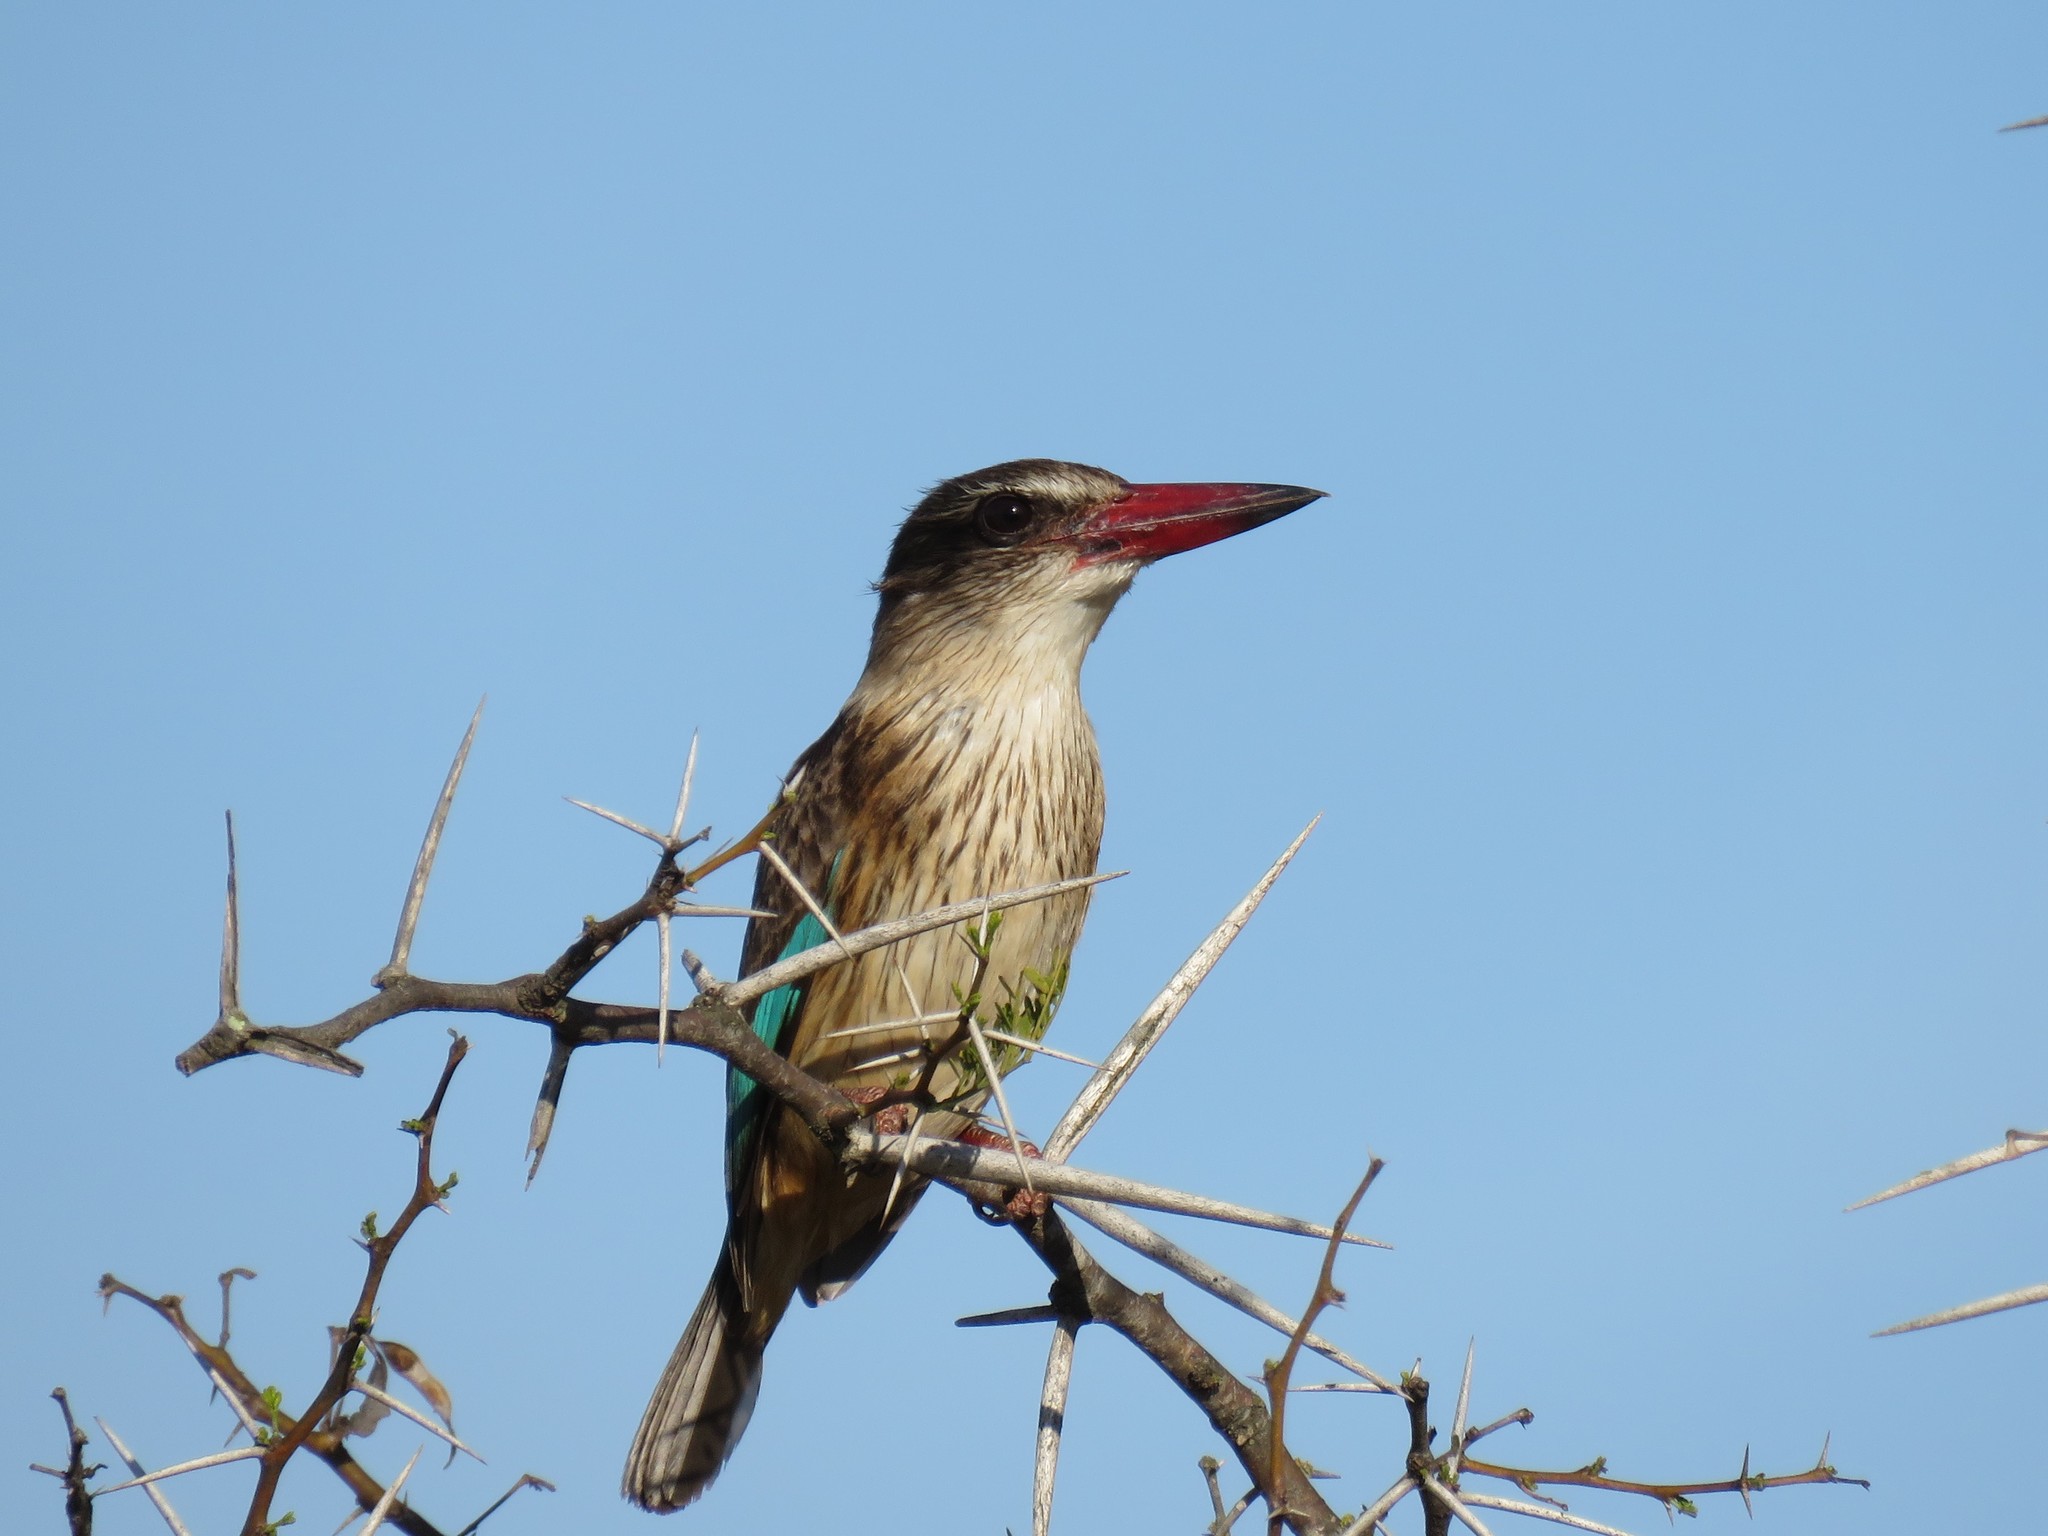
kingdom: Animalia
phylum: Chordata
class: Aves
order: Coraciiformes
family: Alcedinidae
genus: Halcyon
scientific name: Halcyon albiventris
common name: Brown-hooded kingfisher
